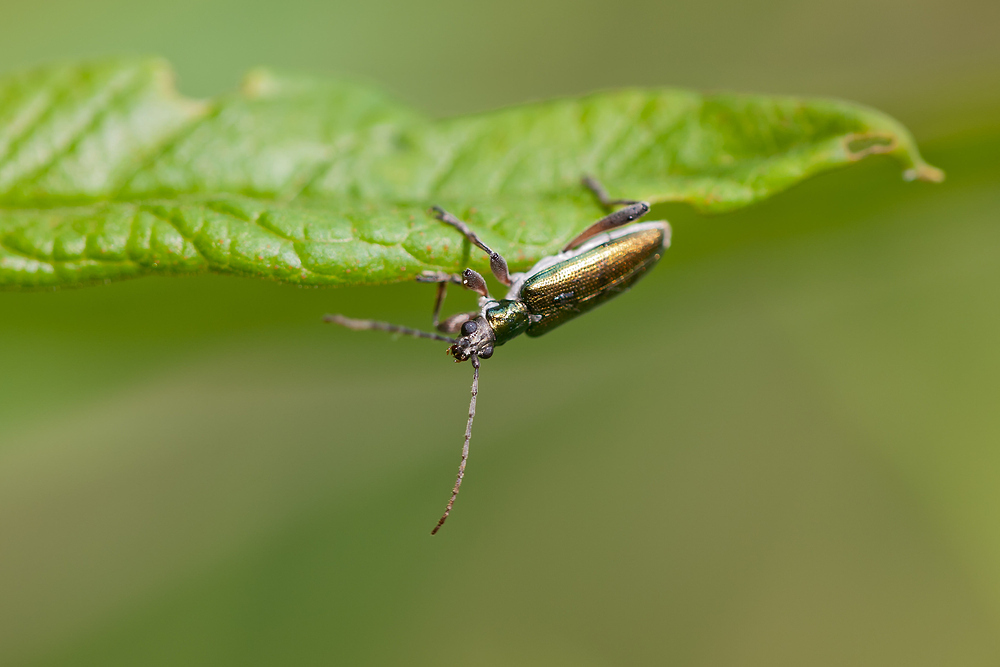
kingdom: Animalia
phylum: Arthropoda
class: Insecta
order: Coleoptera
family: Chrysomelidae
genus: Donacia
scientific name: Donacia clavipes
